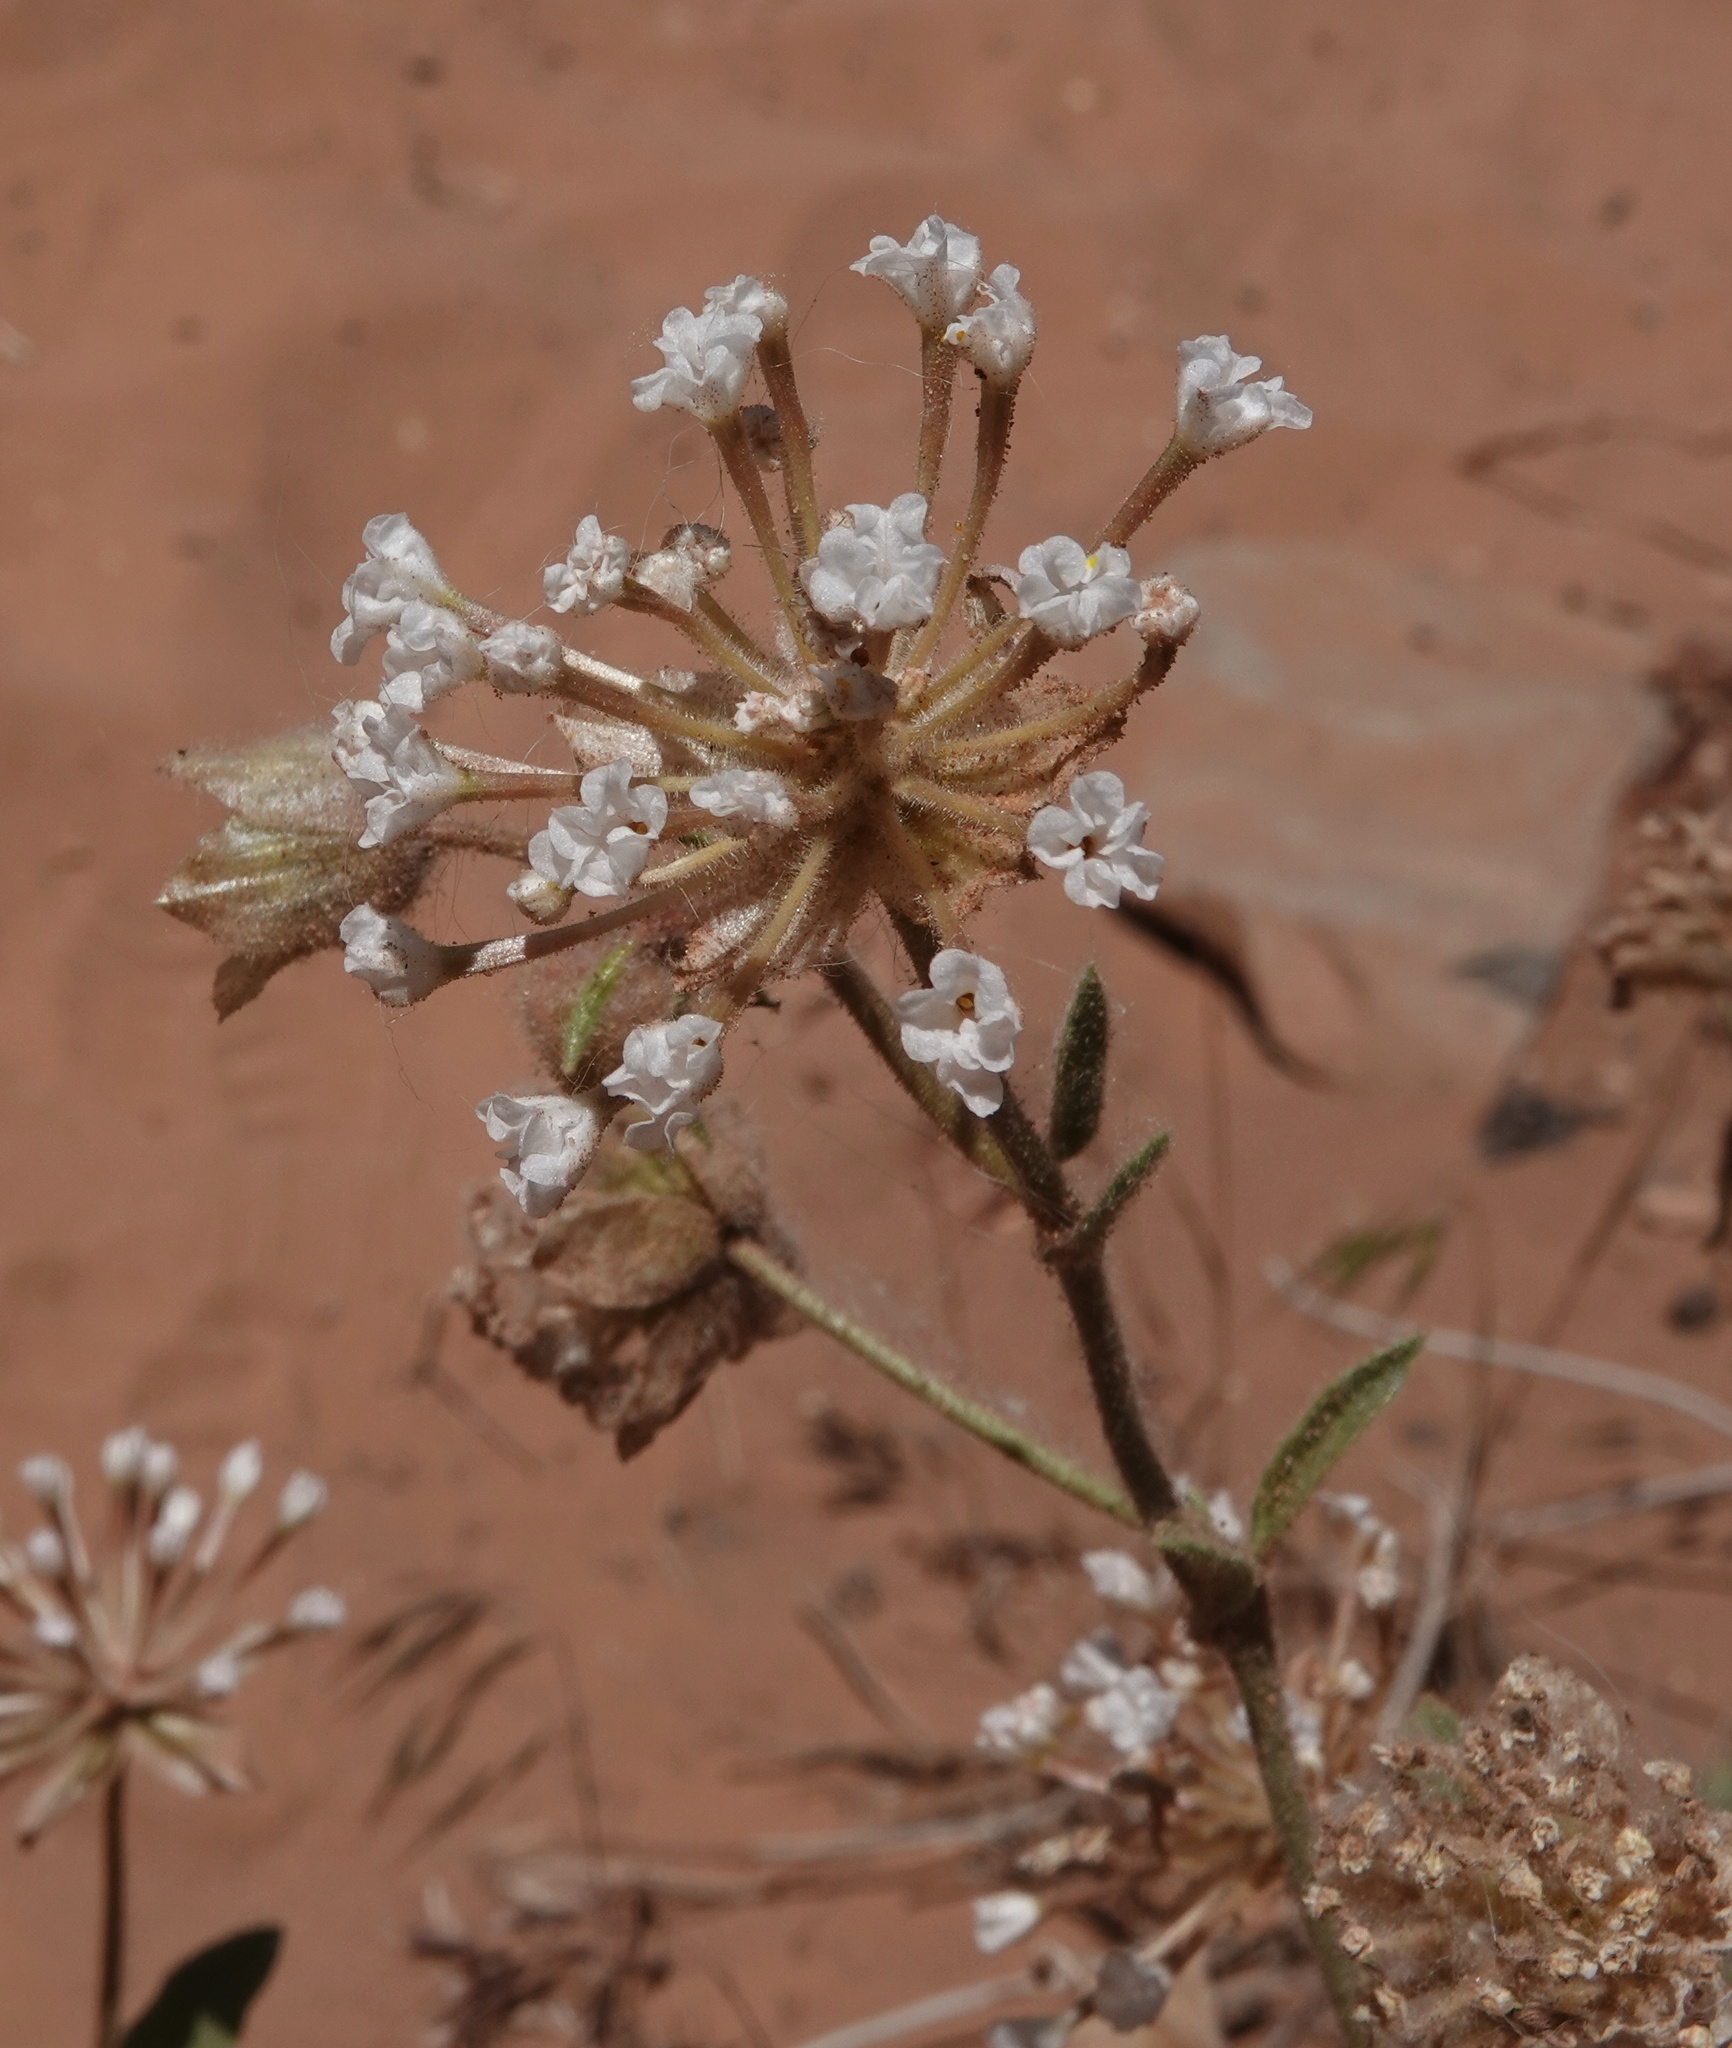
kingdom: Plantae
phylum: Tracheophyta
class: Magnoliopsida
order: Caryophyllales
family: Nyctaginaceae
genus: Abronia
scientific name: Abronia elliptica
